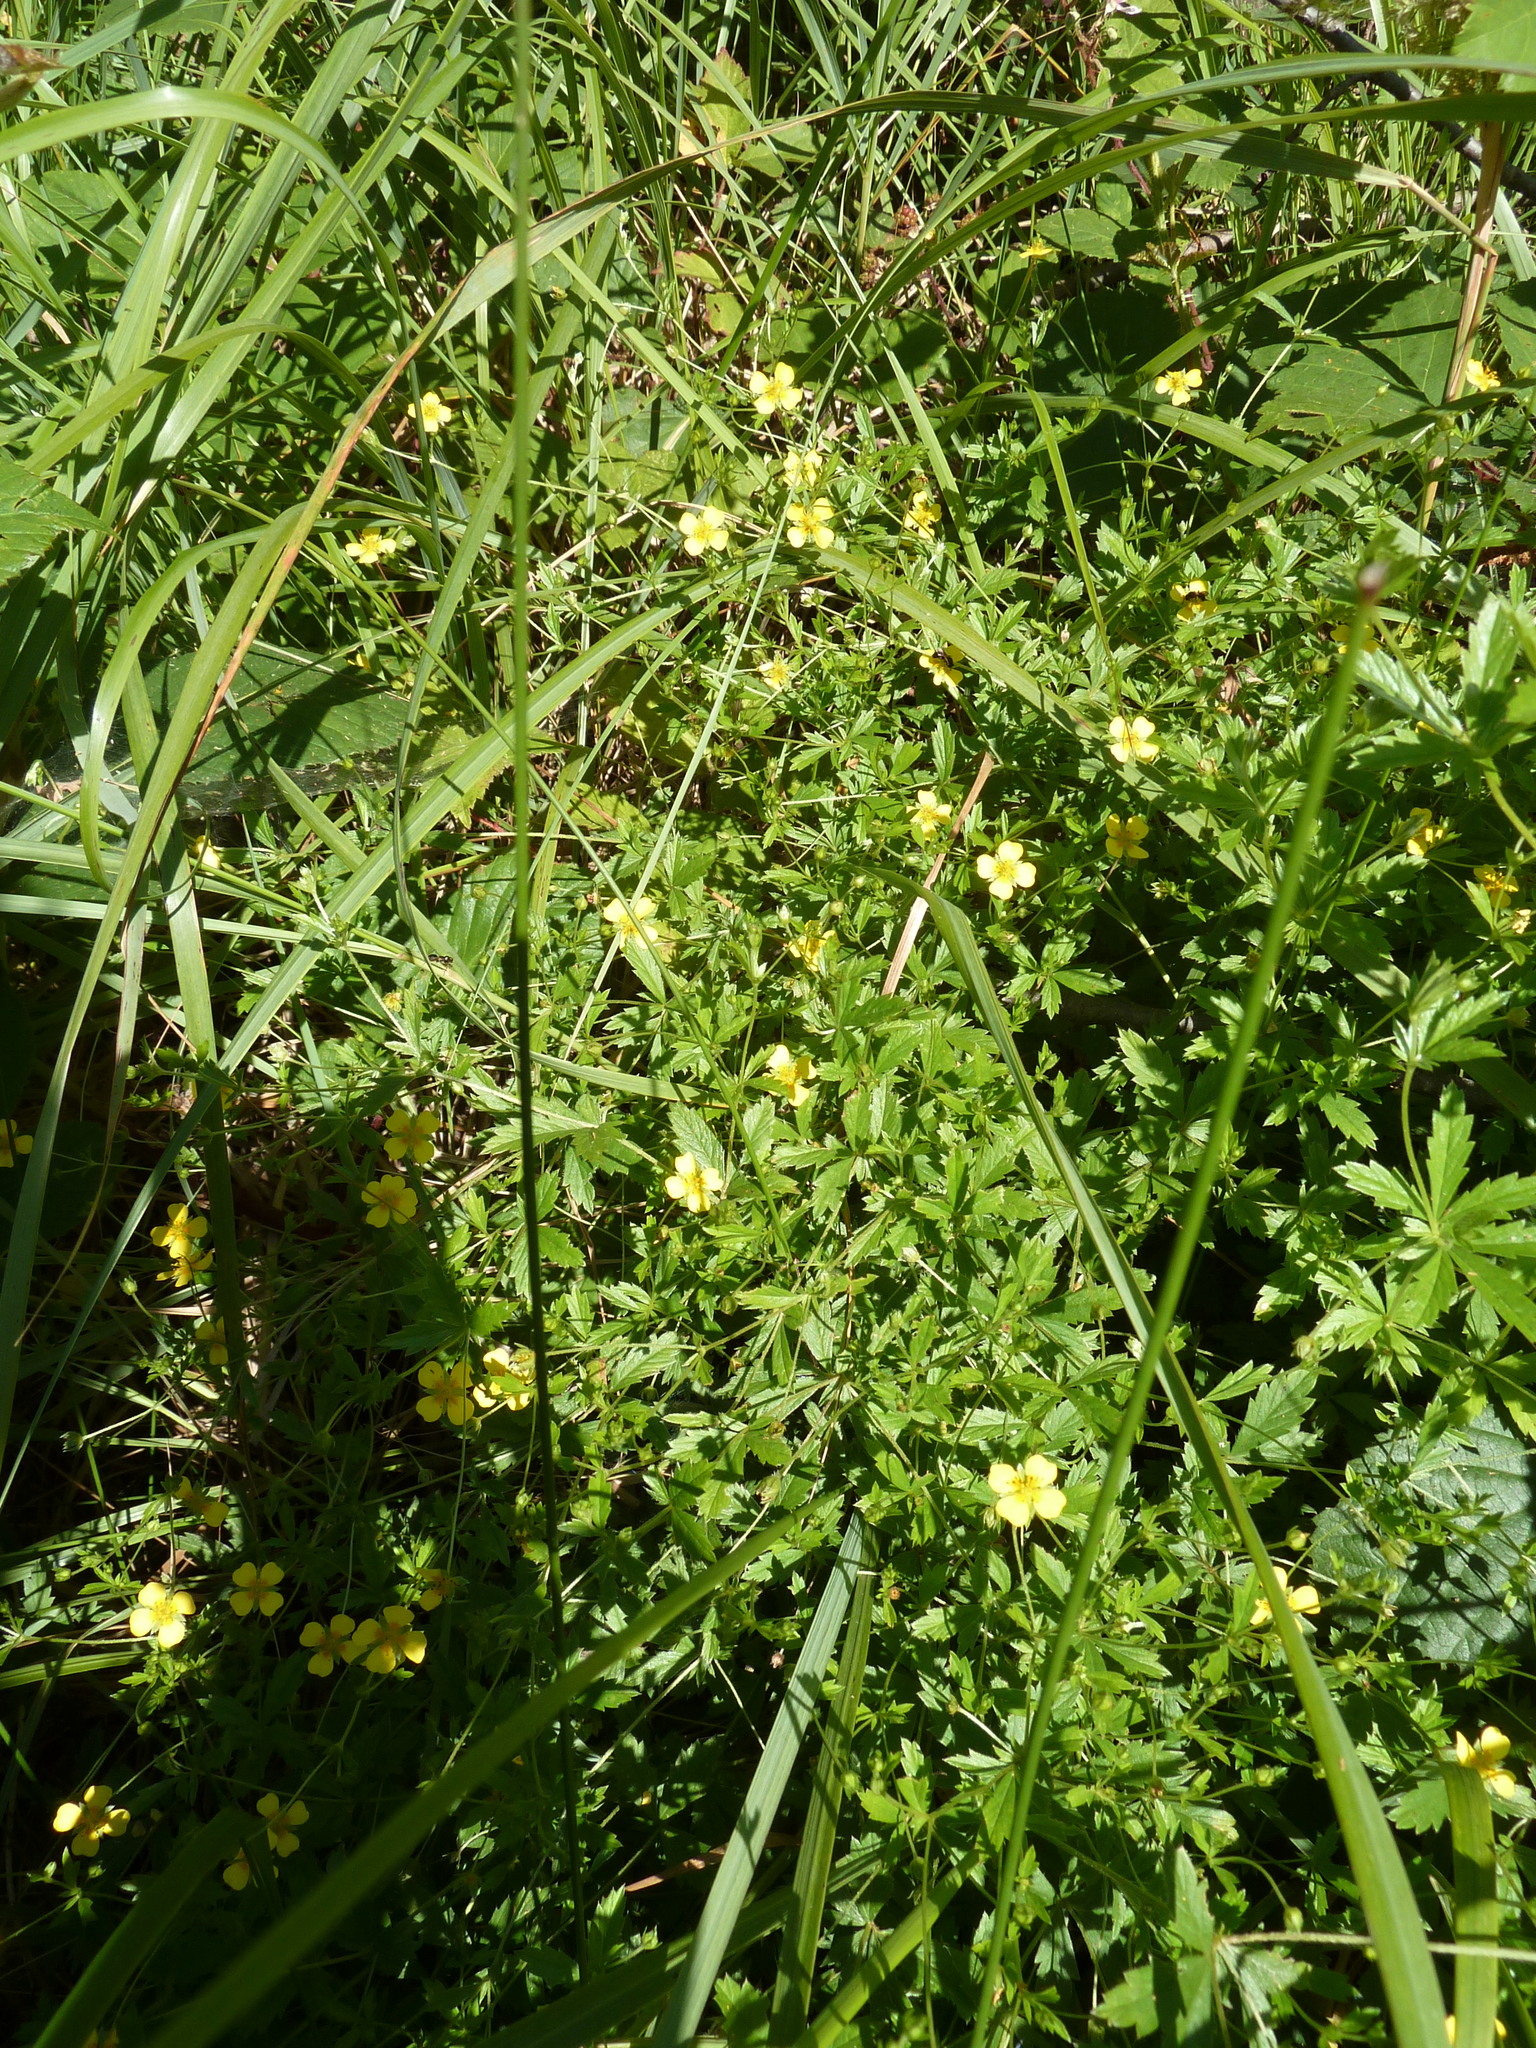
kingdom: Plantae
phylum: Tracheophyta
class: Magnoliopsida
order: Rosales
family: Rosaceae
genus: Potentilla
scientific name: Potentilla erecta
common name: Tormentil
